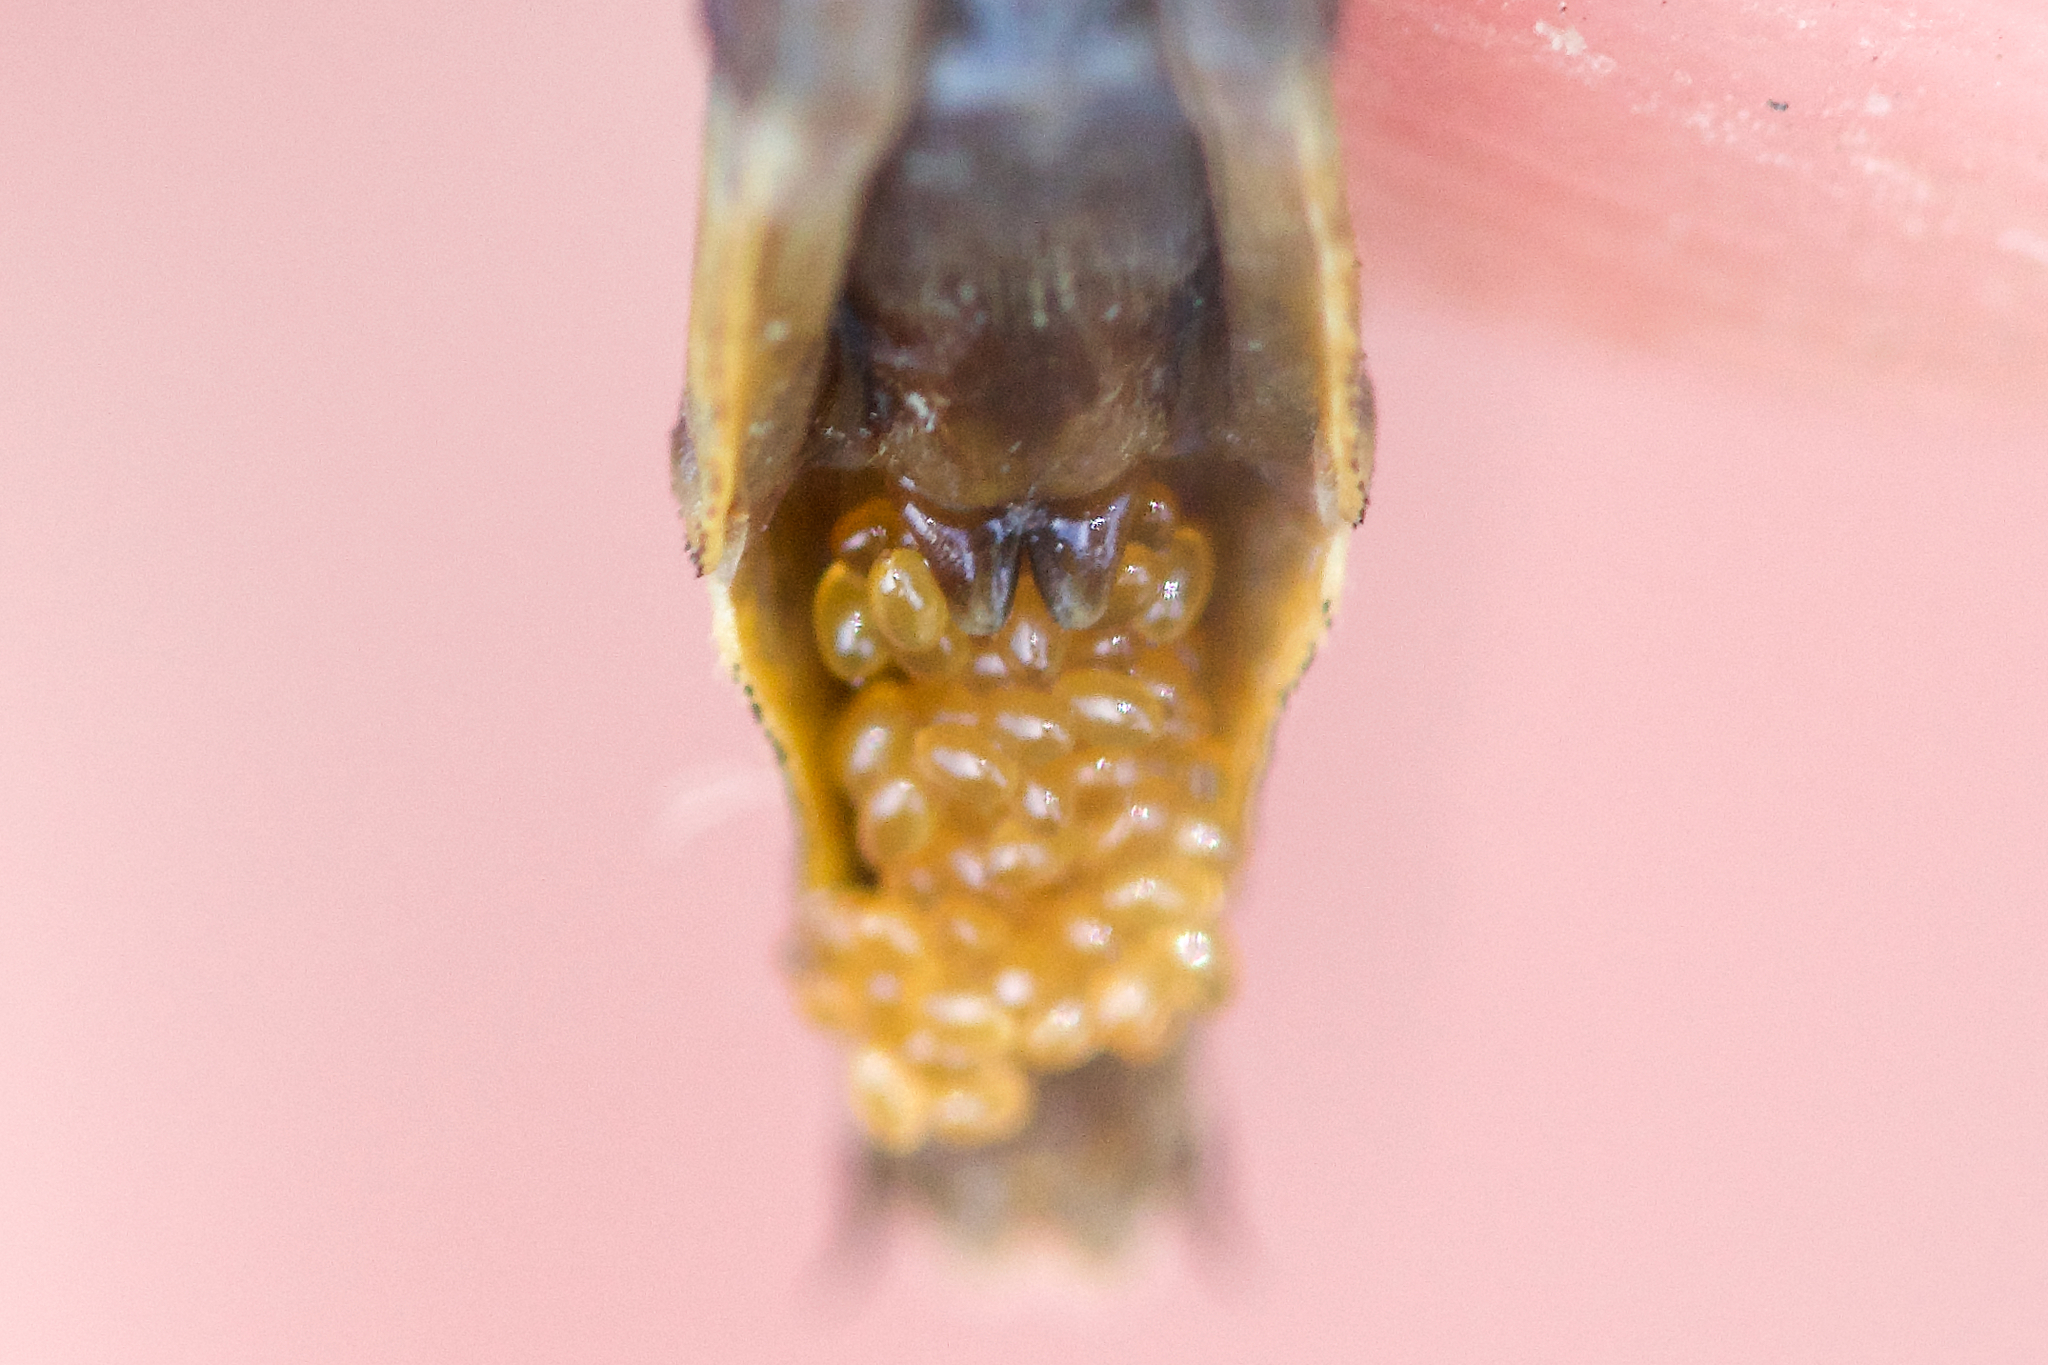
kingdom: Animalia
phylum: Arthropoda
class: Insecta
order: Odonata
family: Gomphidae
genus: Phanogomphus
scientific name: Phanogomphus exilis
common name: Lancet clubtail
